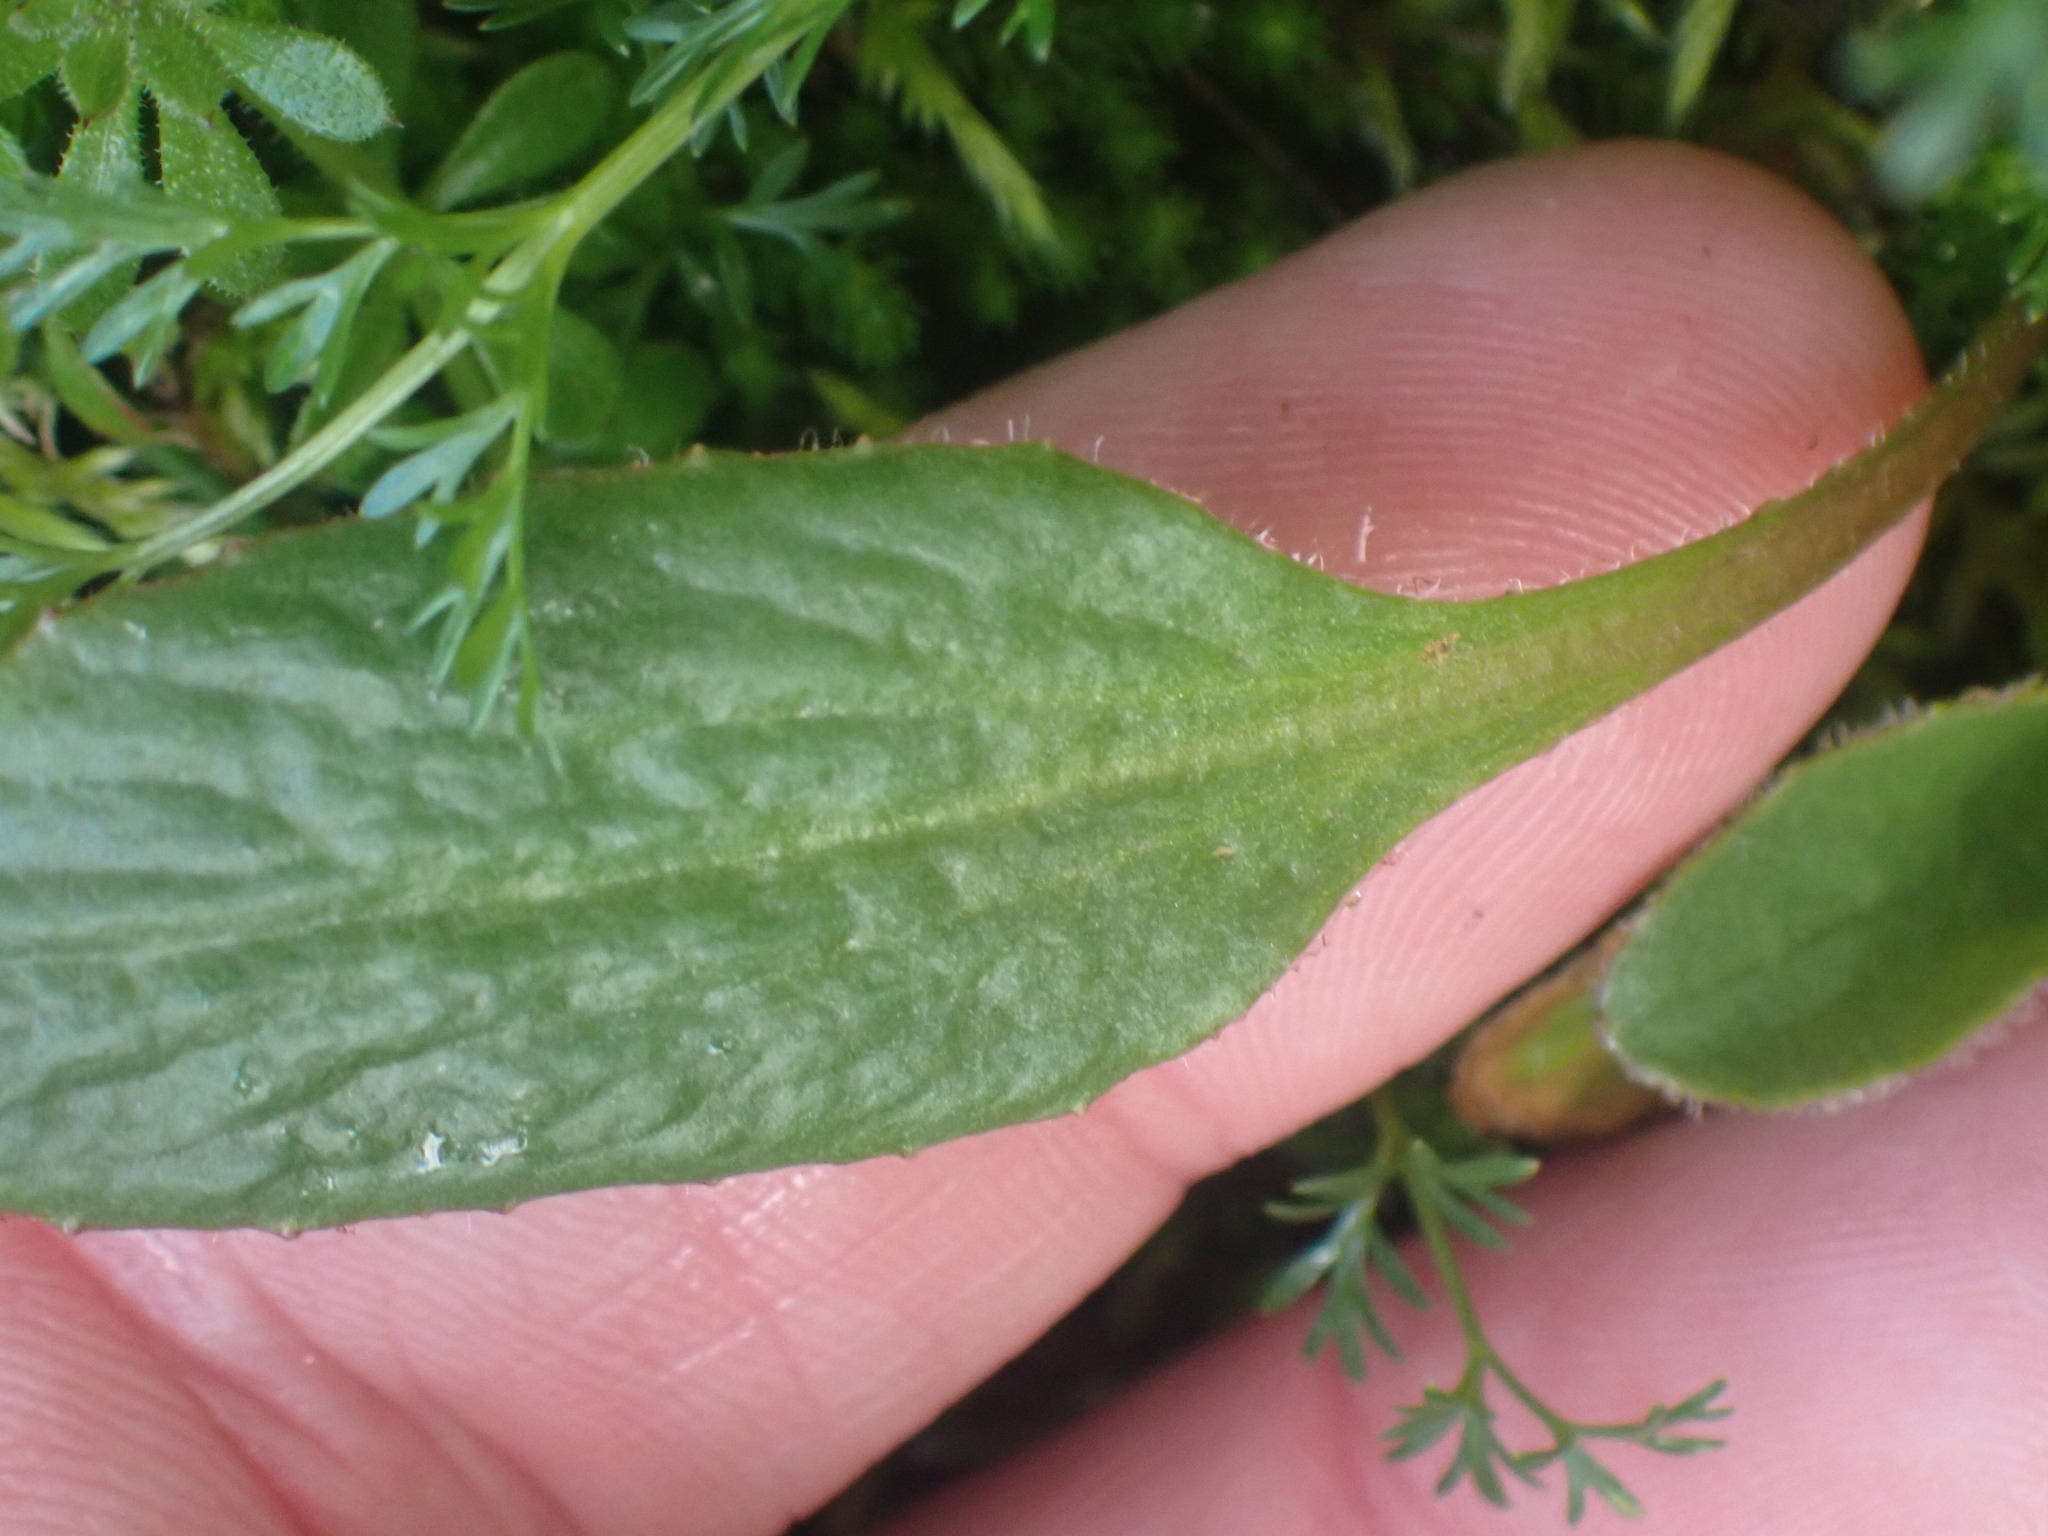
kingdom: Plantae
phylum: Tracheophyta
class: Magnoliopsida
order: Saxifragales
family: Saxifragaceae
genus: Micranthes
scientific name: Micranthes integrifolia
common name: Wholeleaf saxifrage
